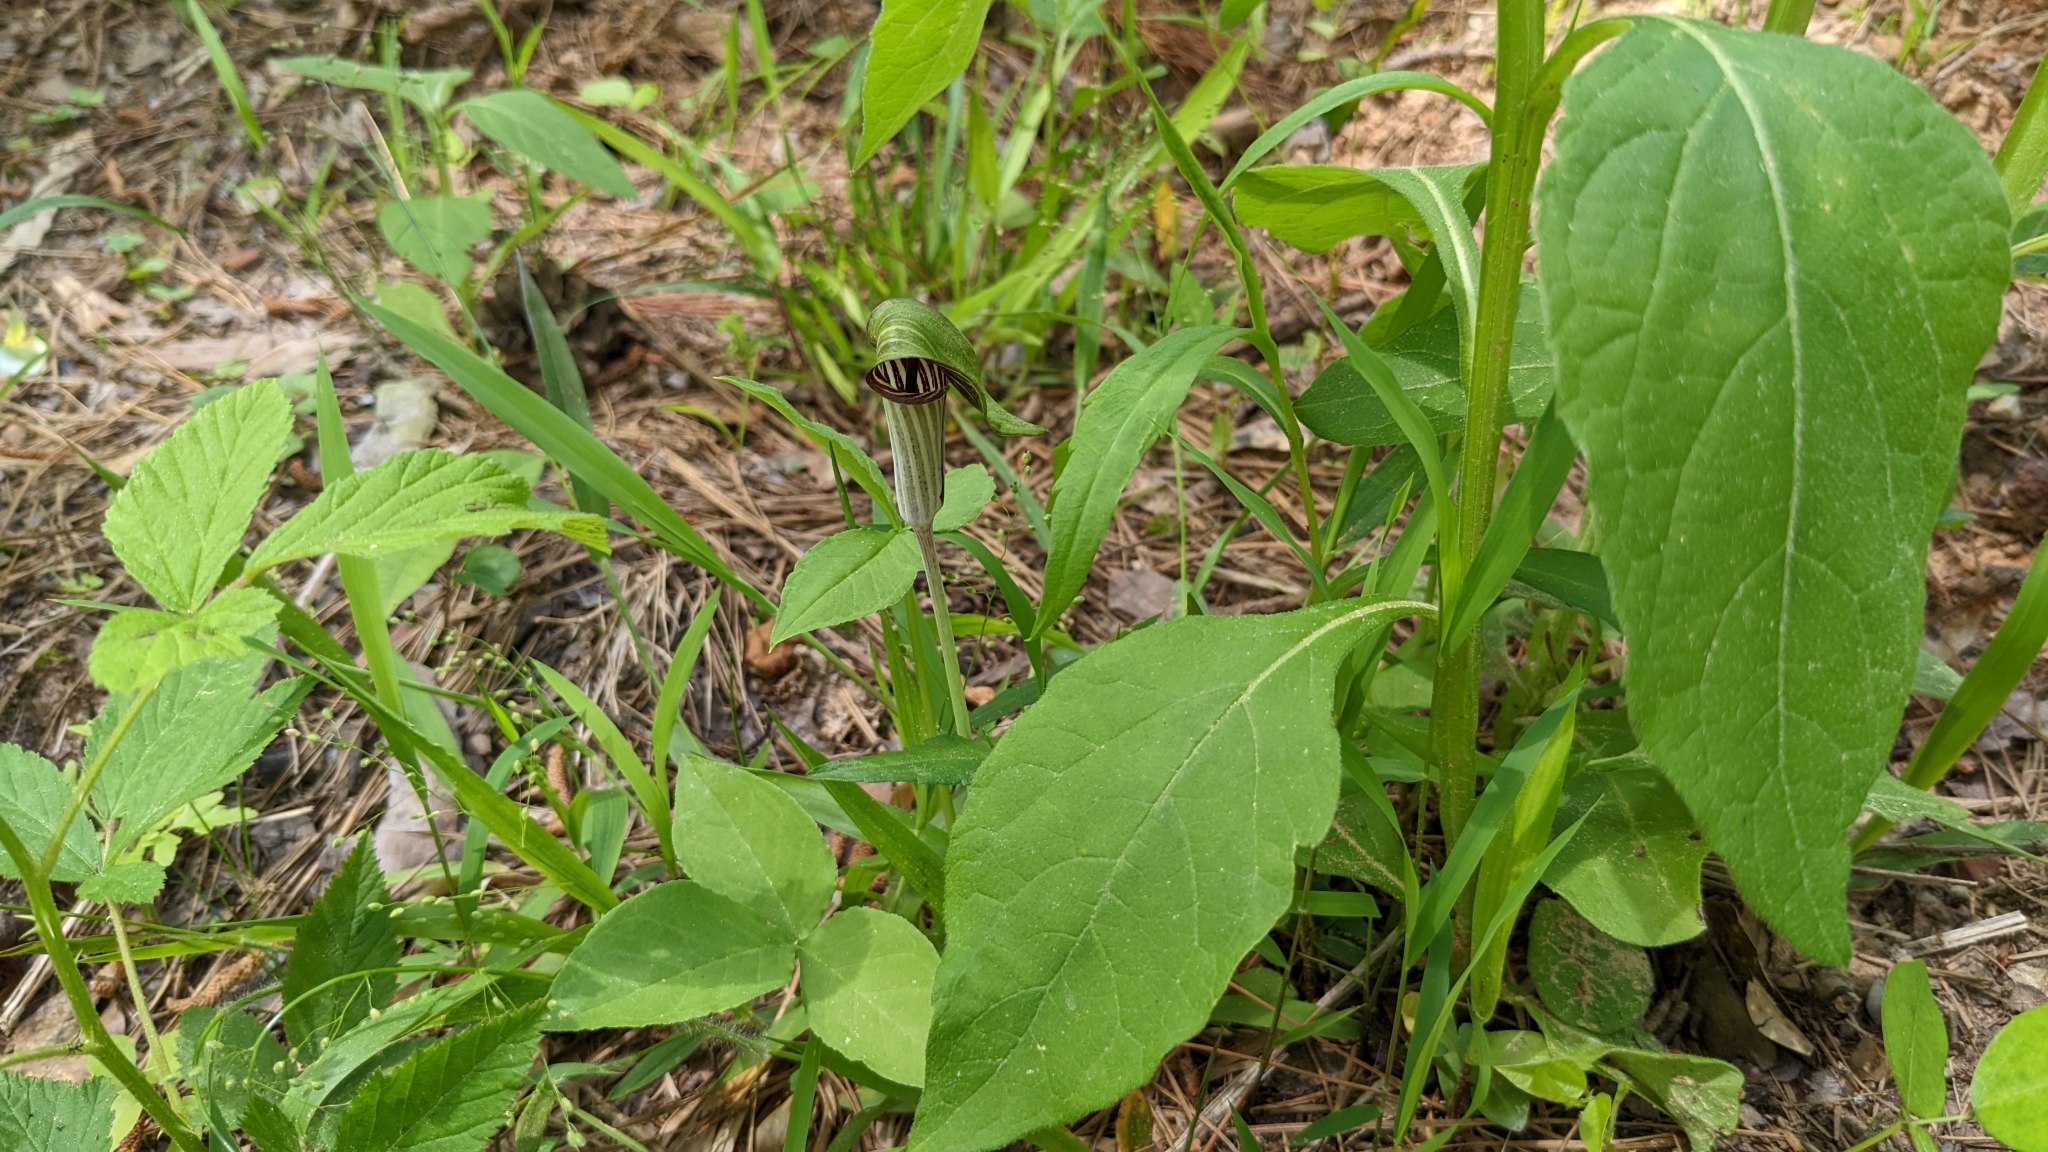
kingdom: Plantae
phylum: Tracheophyta
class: Liliopsida
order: Alismatales
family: Araceae
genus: Arisaema
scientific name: Arisaema triphyllum
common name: Jack-in-the-pulpit
